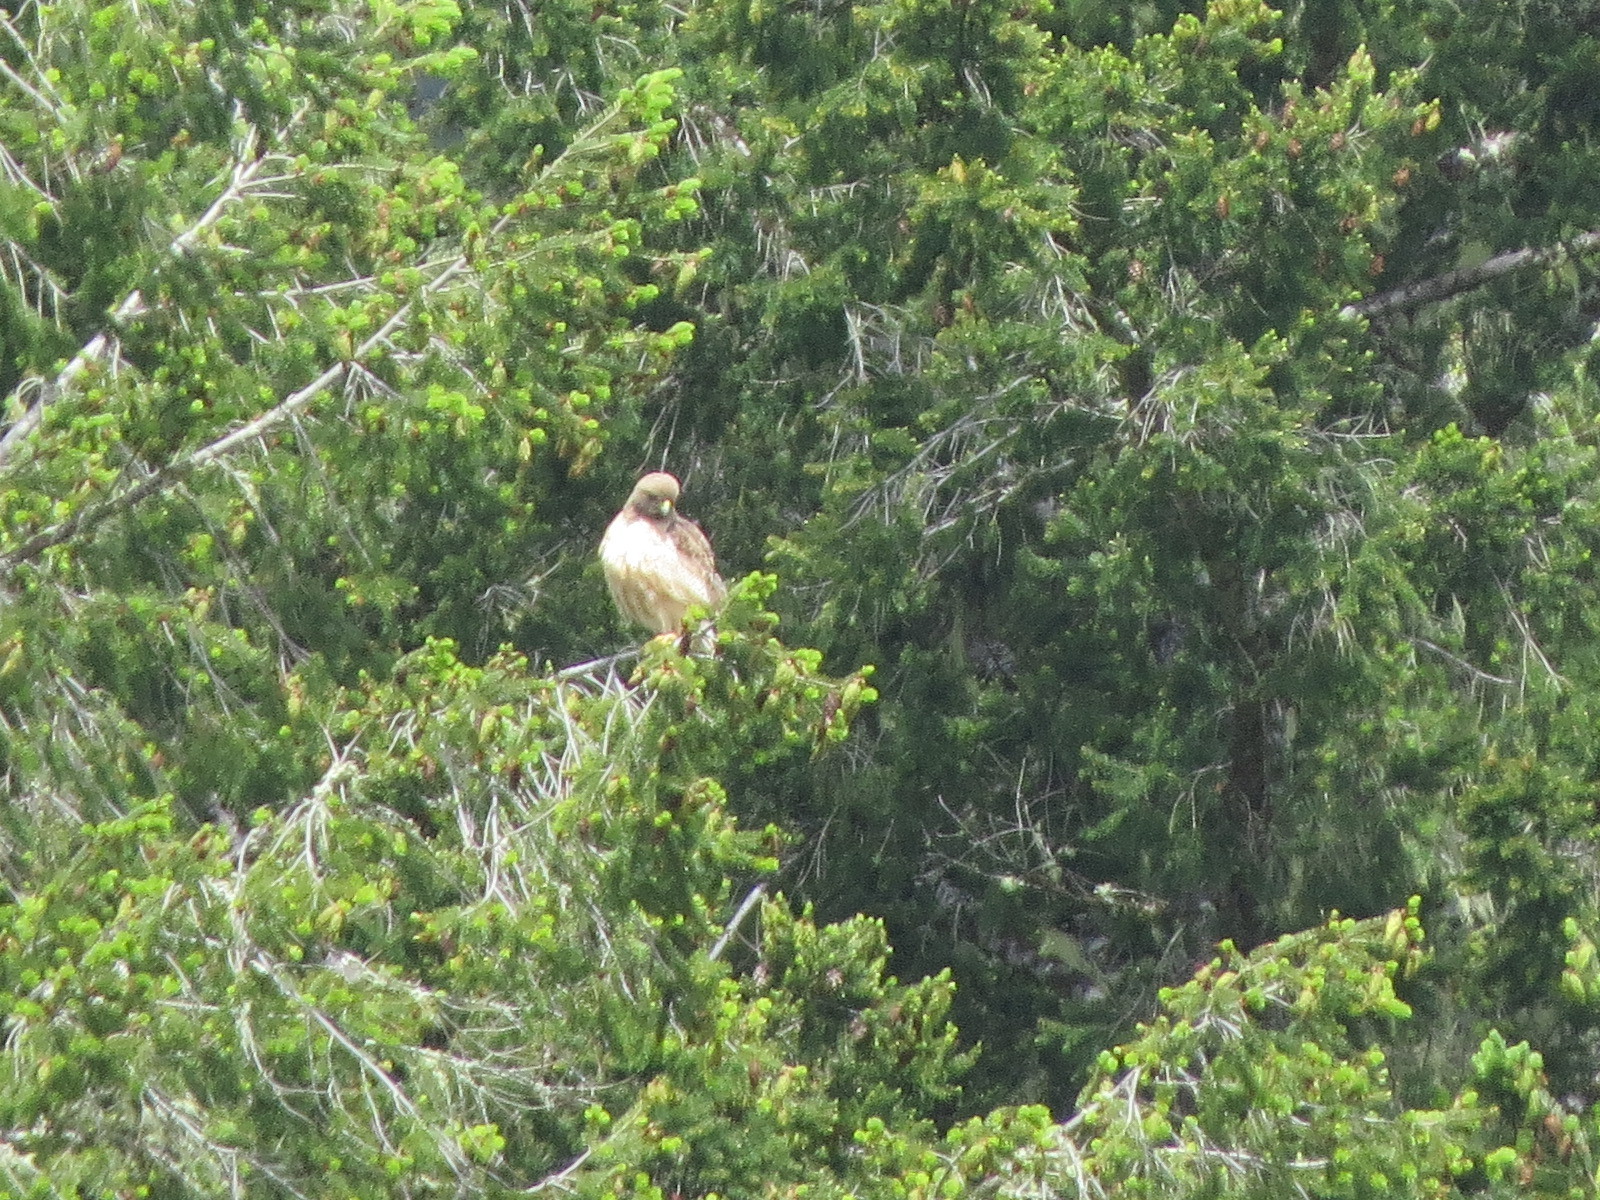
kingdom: Animalia
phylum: Chordata
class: Aves
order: Accipitriformes
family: Accipitridae
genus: Buteo
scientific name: Buteo jamaicensis
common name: Red-tailed hawk
